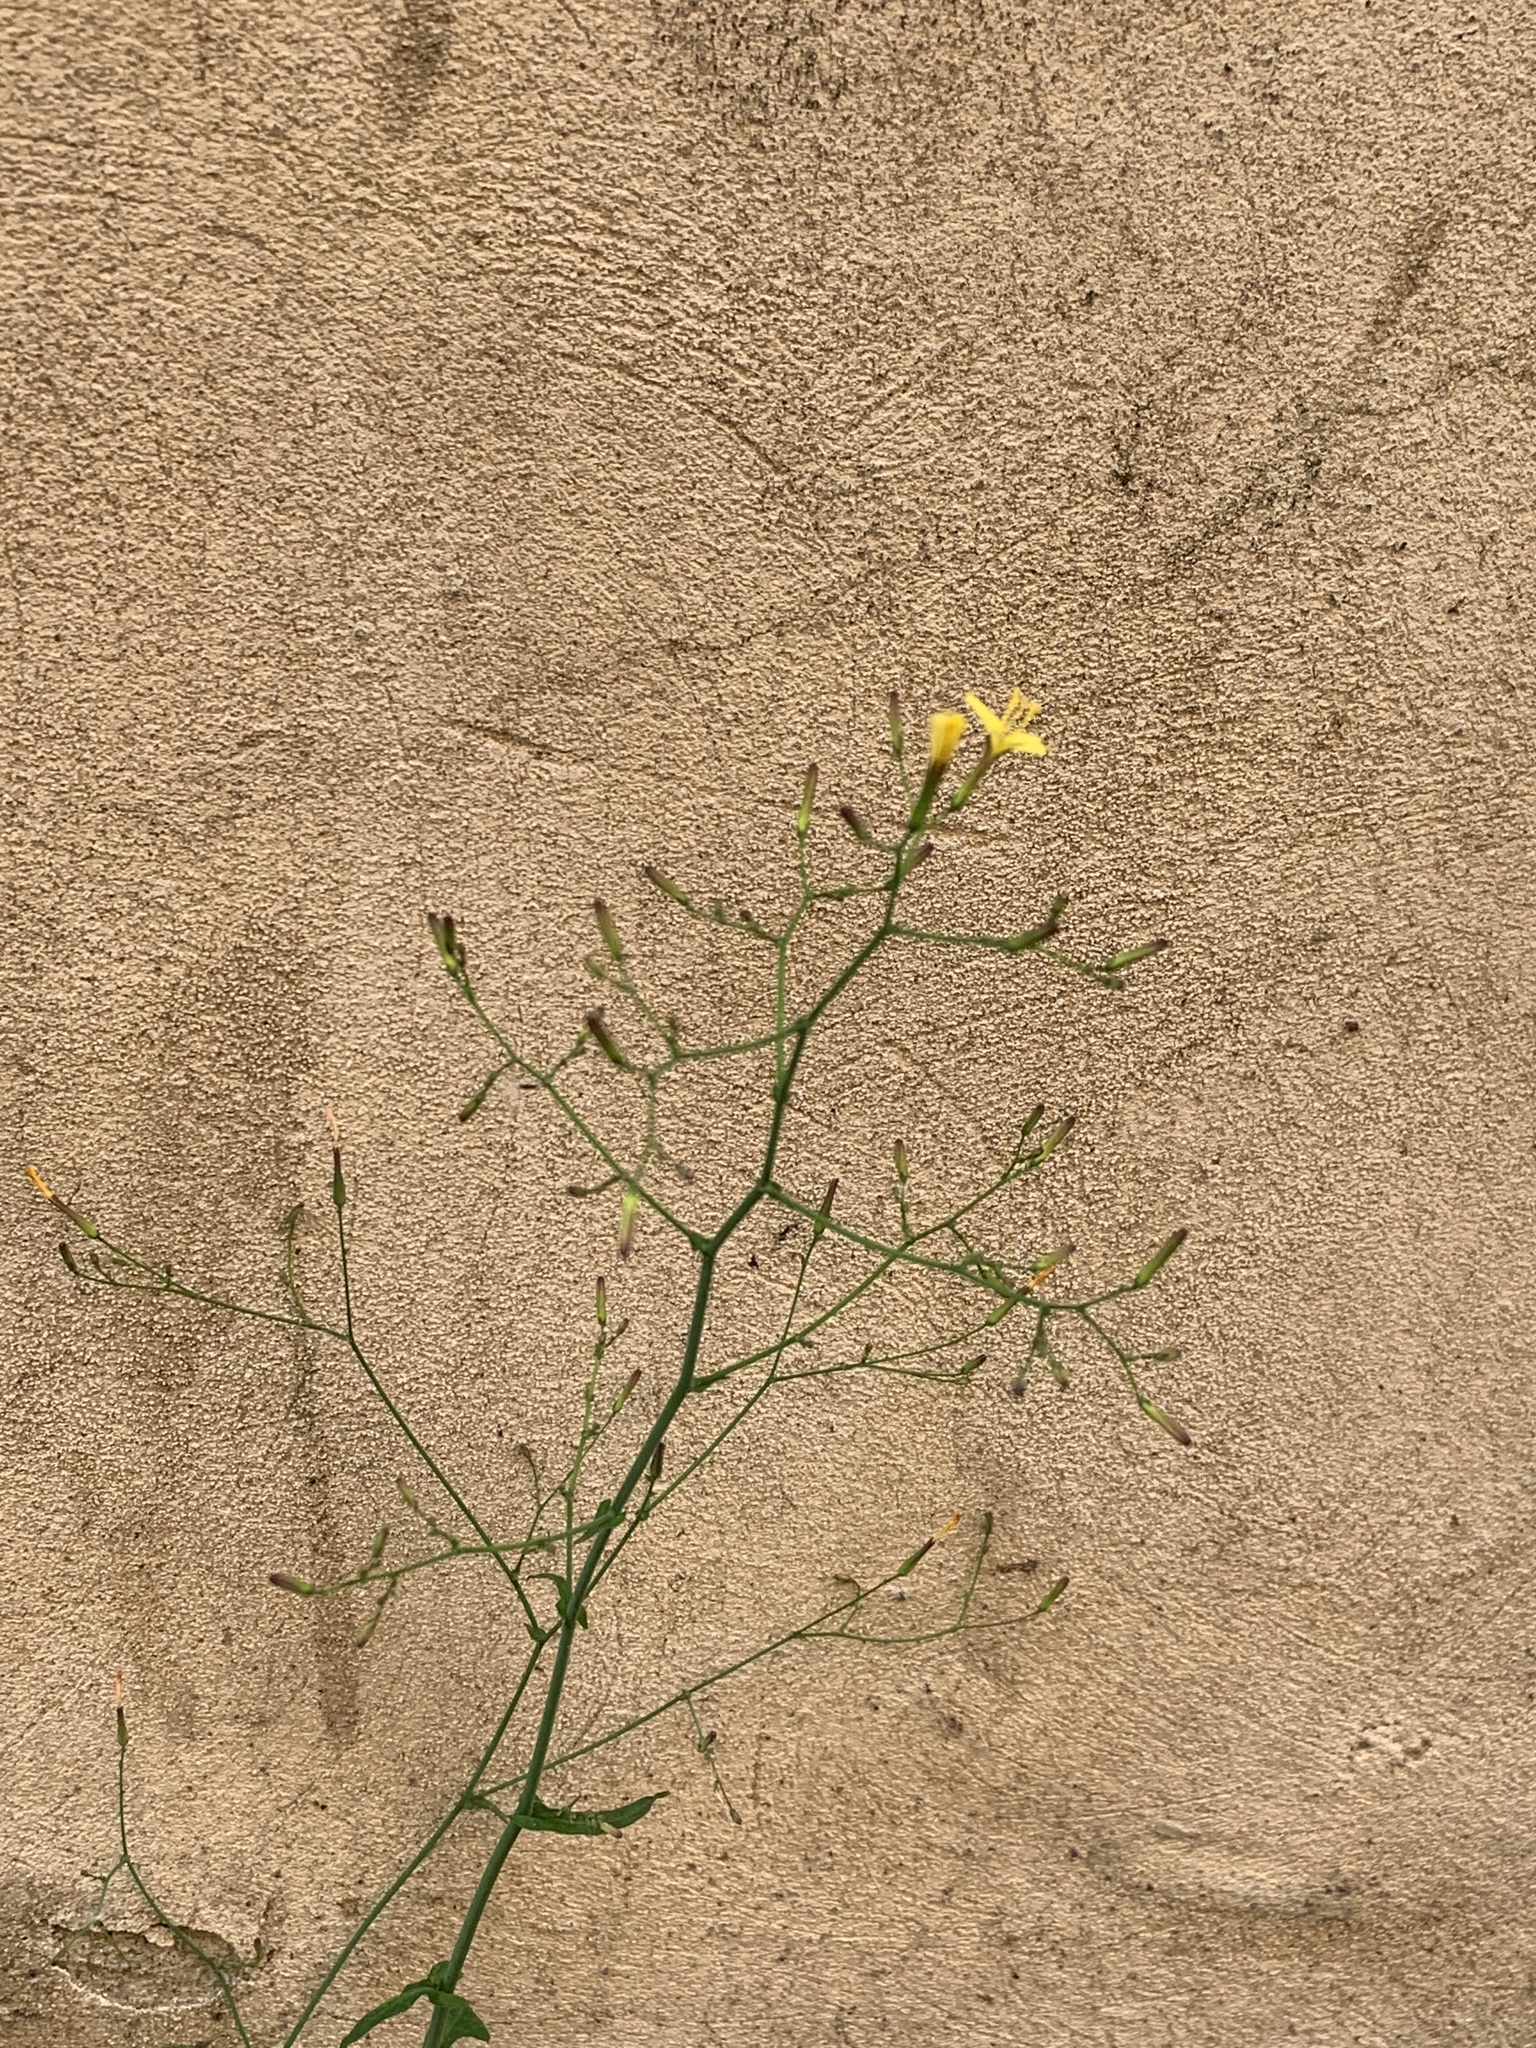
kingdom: Plantae
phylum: Tracheophyta
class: Magnoliopsida
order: Asterales
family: Asteraceae
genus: Mycelis
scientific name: Mycelis muralis
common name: Wall lettuce
